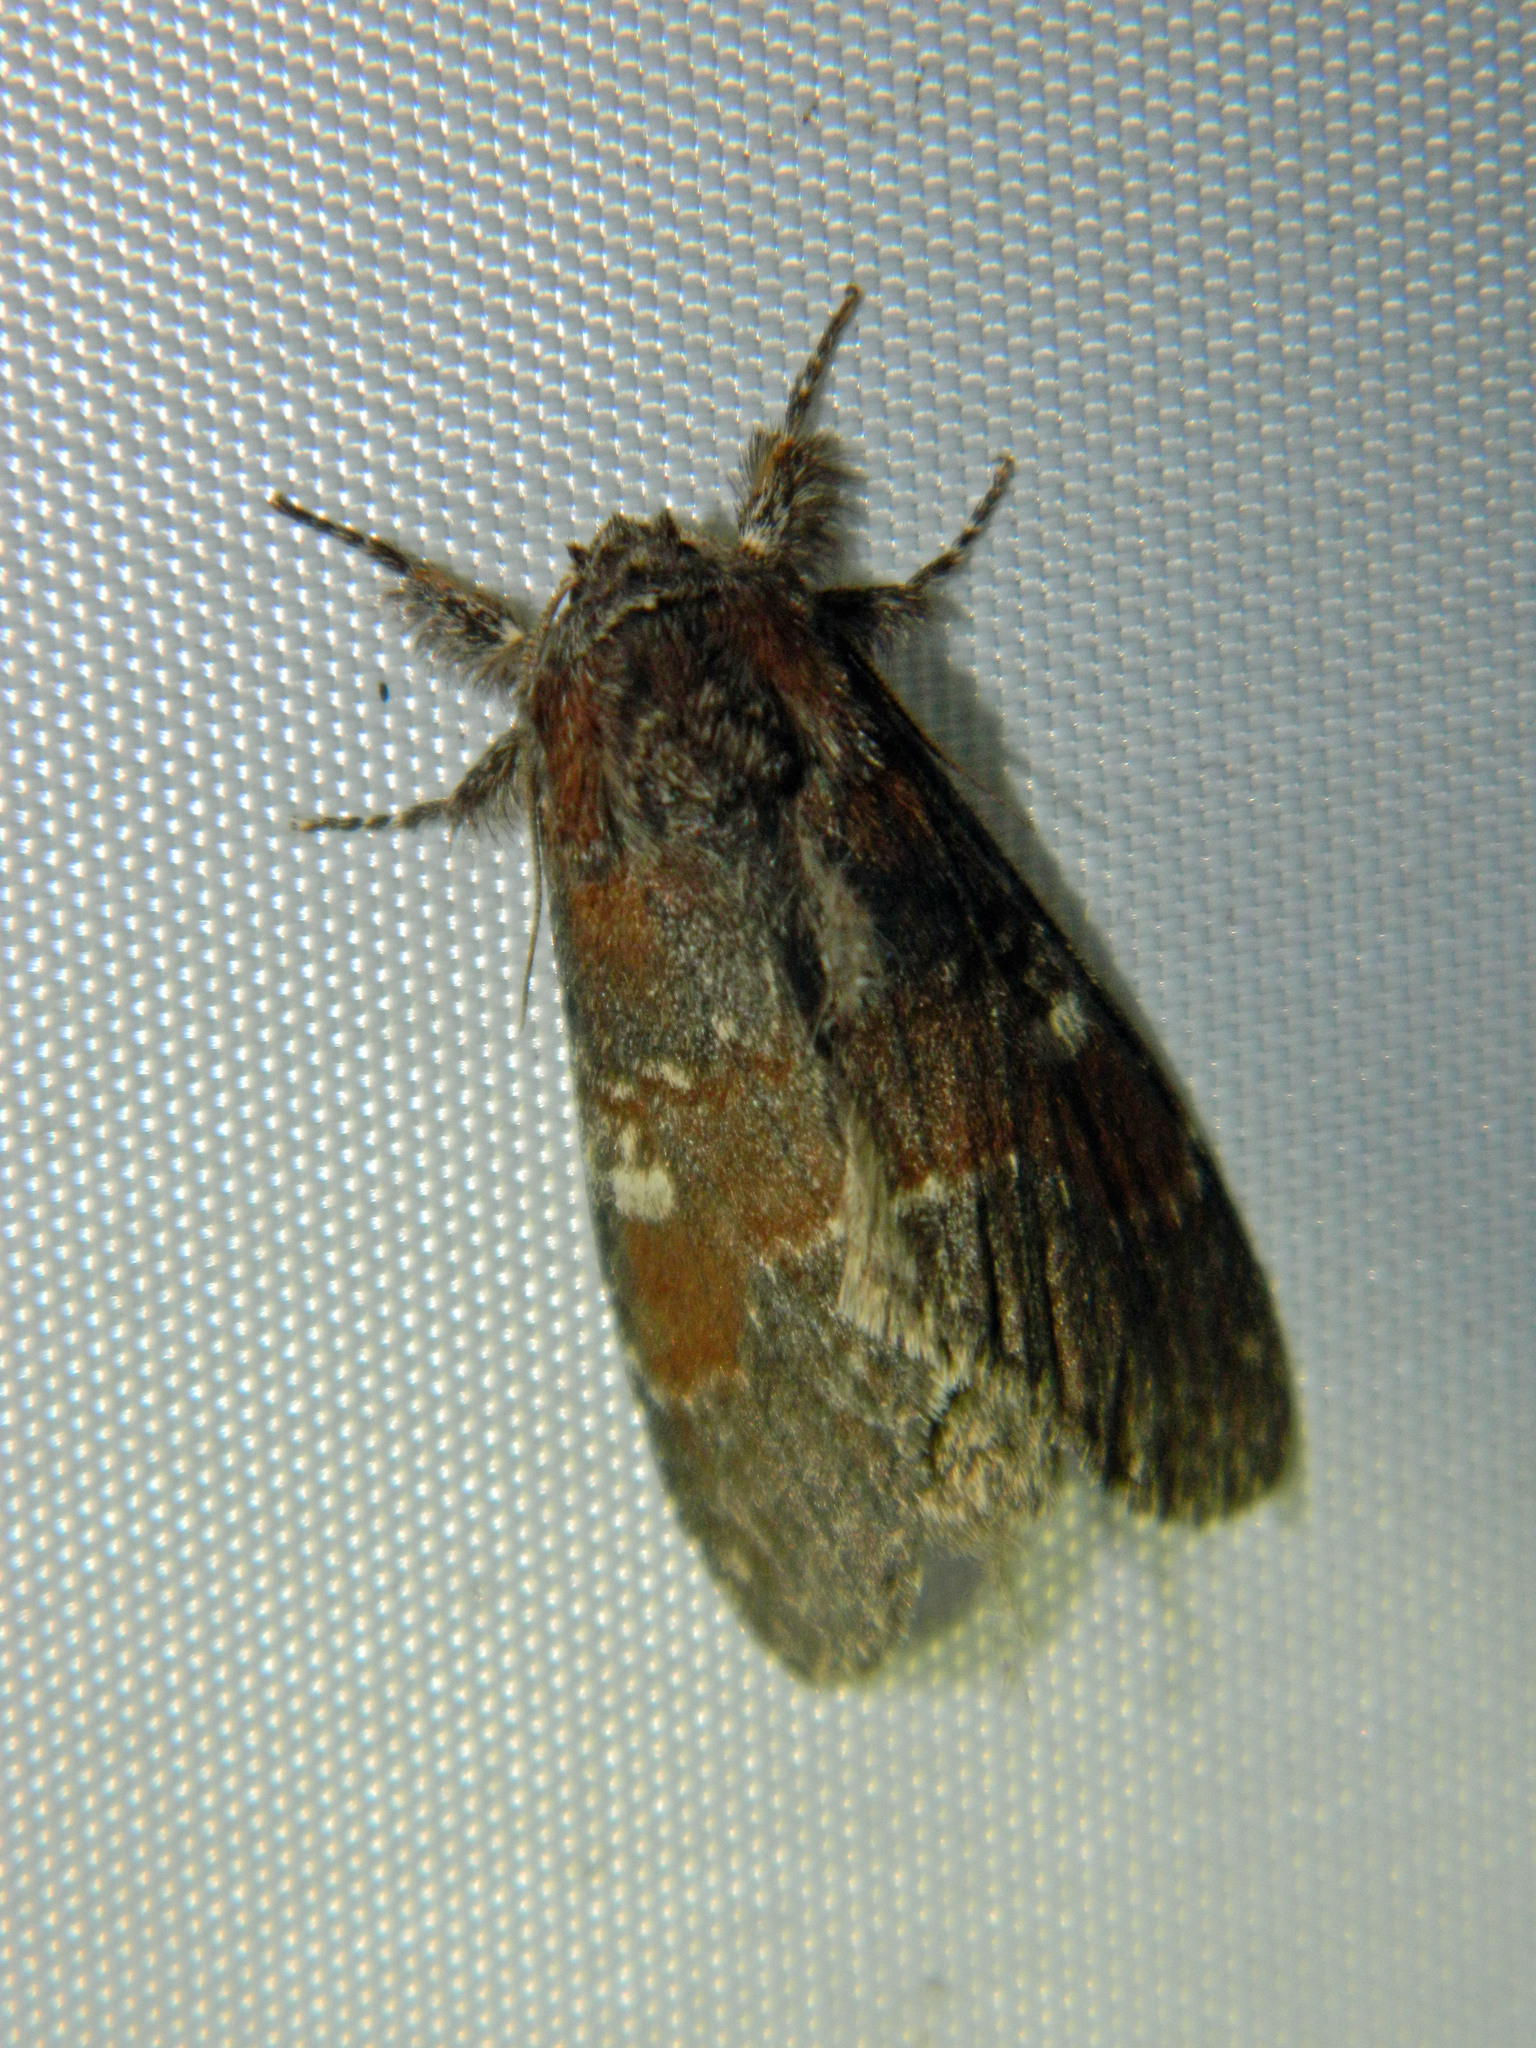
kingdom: Animalia
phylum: Arthropoda
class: Insecta
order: Lepidoptera
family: Notodontidae
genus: Peridea
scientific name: Peridea ferruginea
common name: Chocolate prominent
